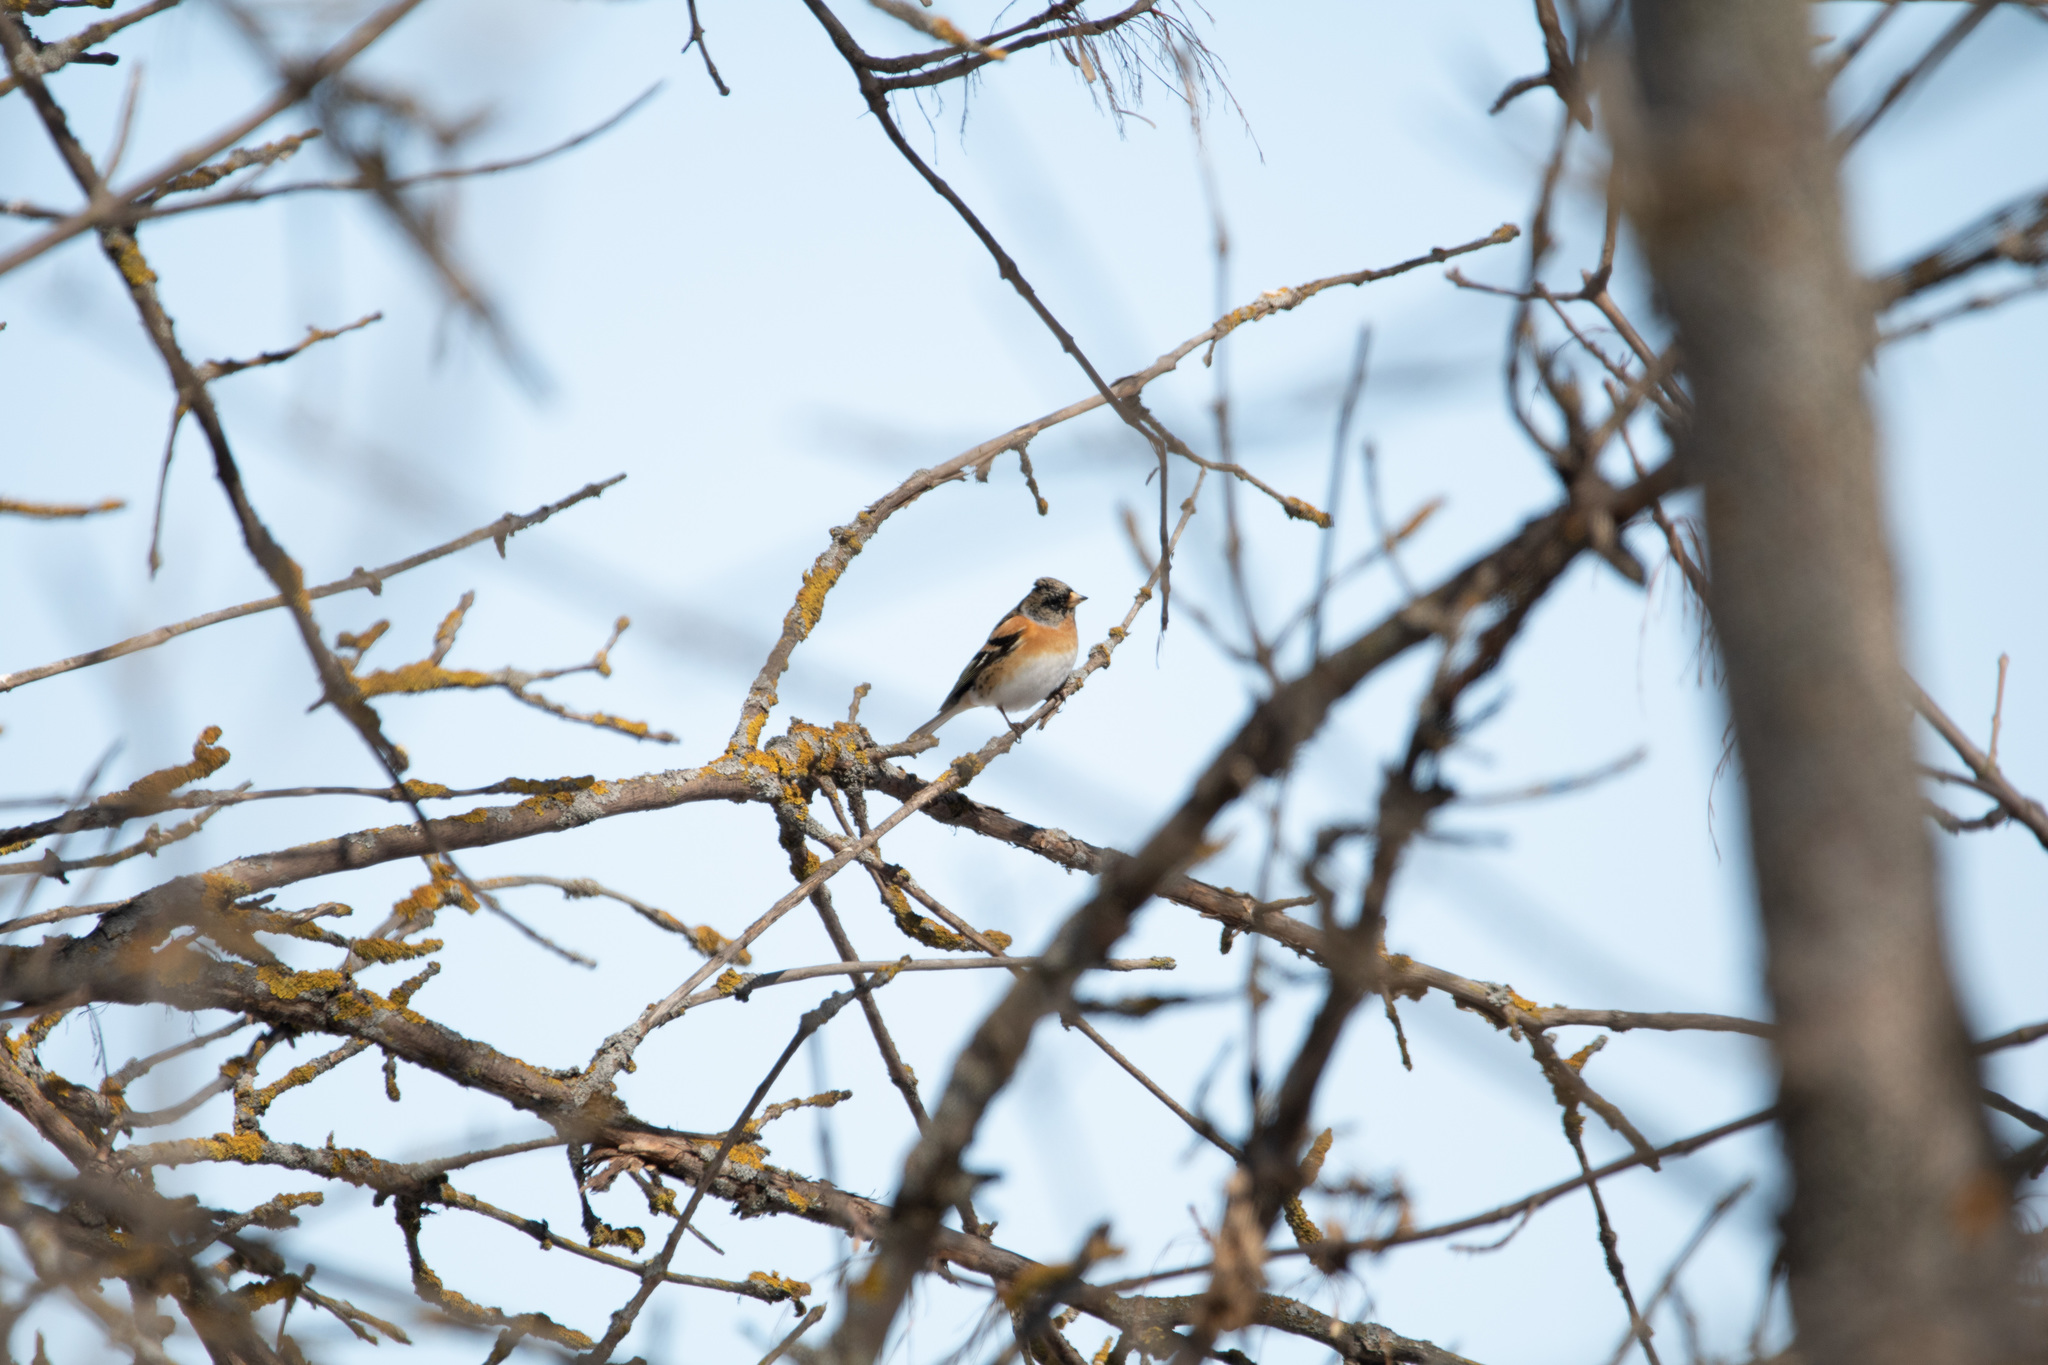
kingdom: Animalia
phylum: Chordata
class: Aves
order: Passeriformes
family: Fringillidae
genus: Fringilla
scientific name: Fringilla montifringilla
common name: Brambling
